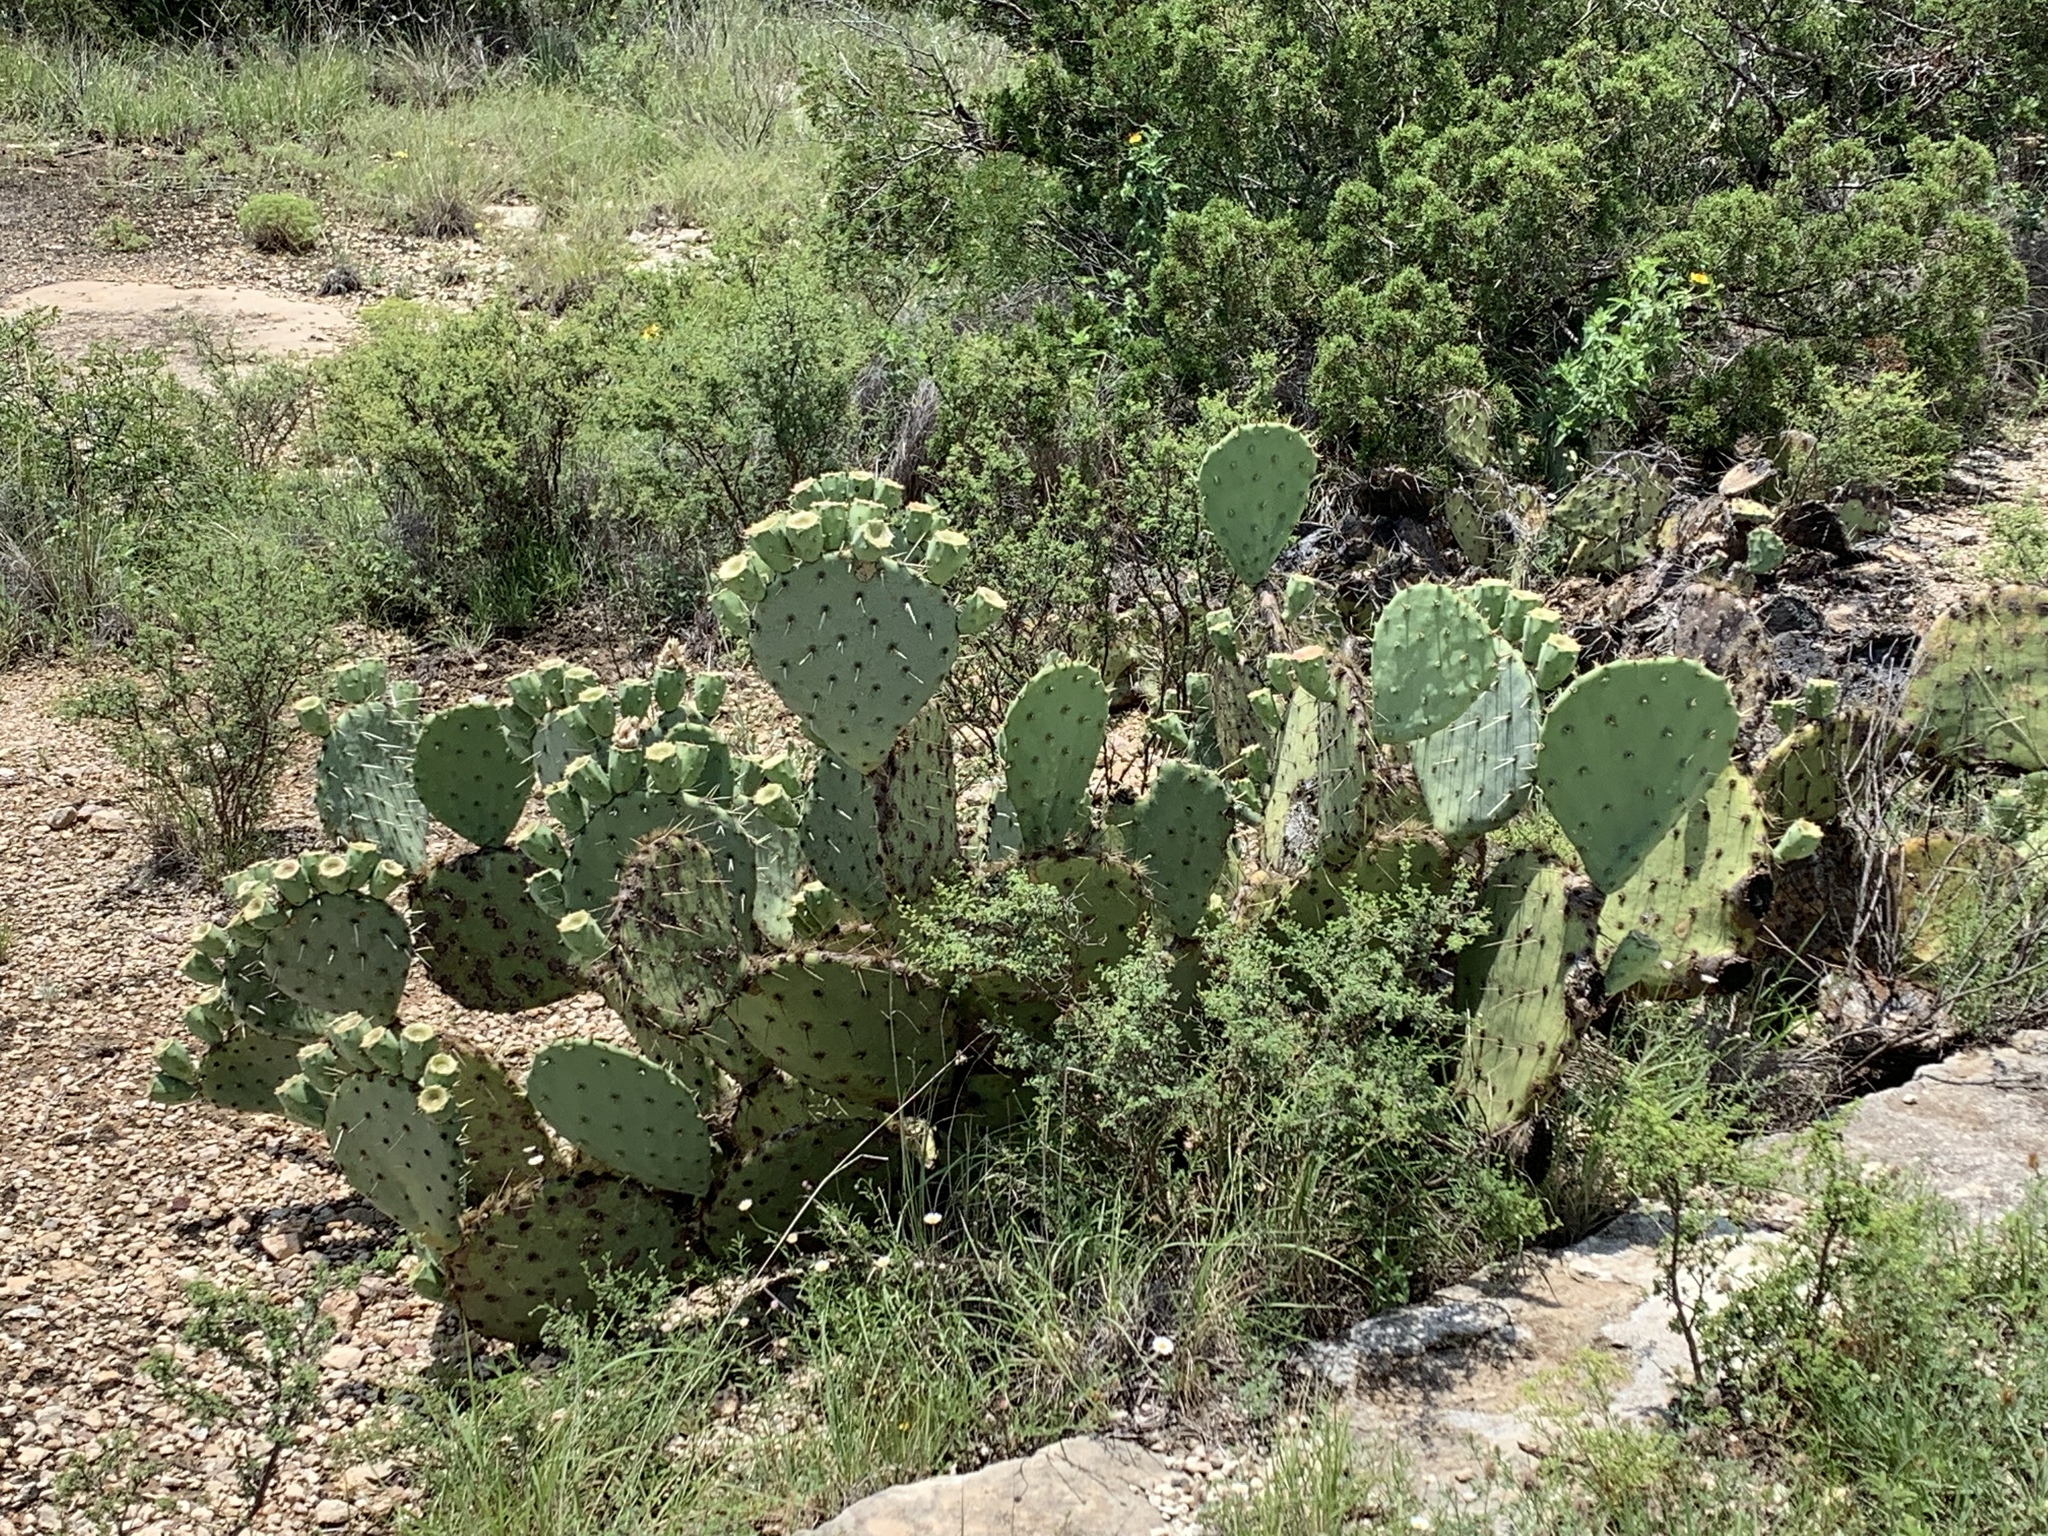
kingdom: Plantae
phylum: Tracheophyta
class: Magnoliopsida
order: Caryophyllales
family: Cactaceae
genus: Opuntia
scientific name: Opuntia engelmannii
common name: Cactus-apple
